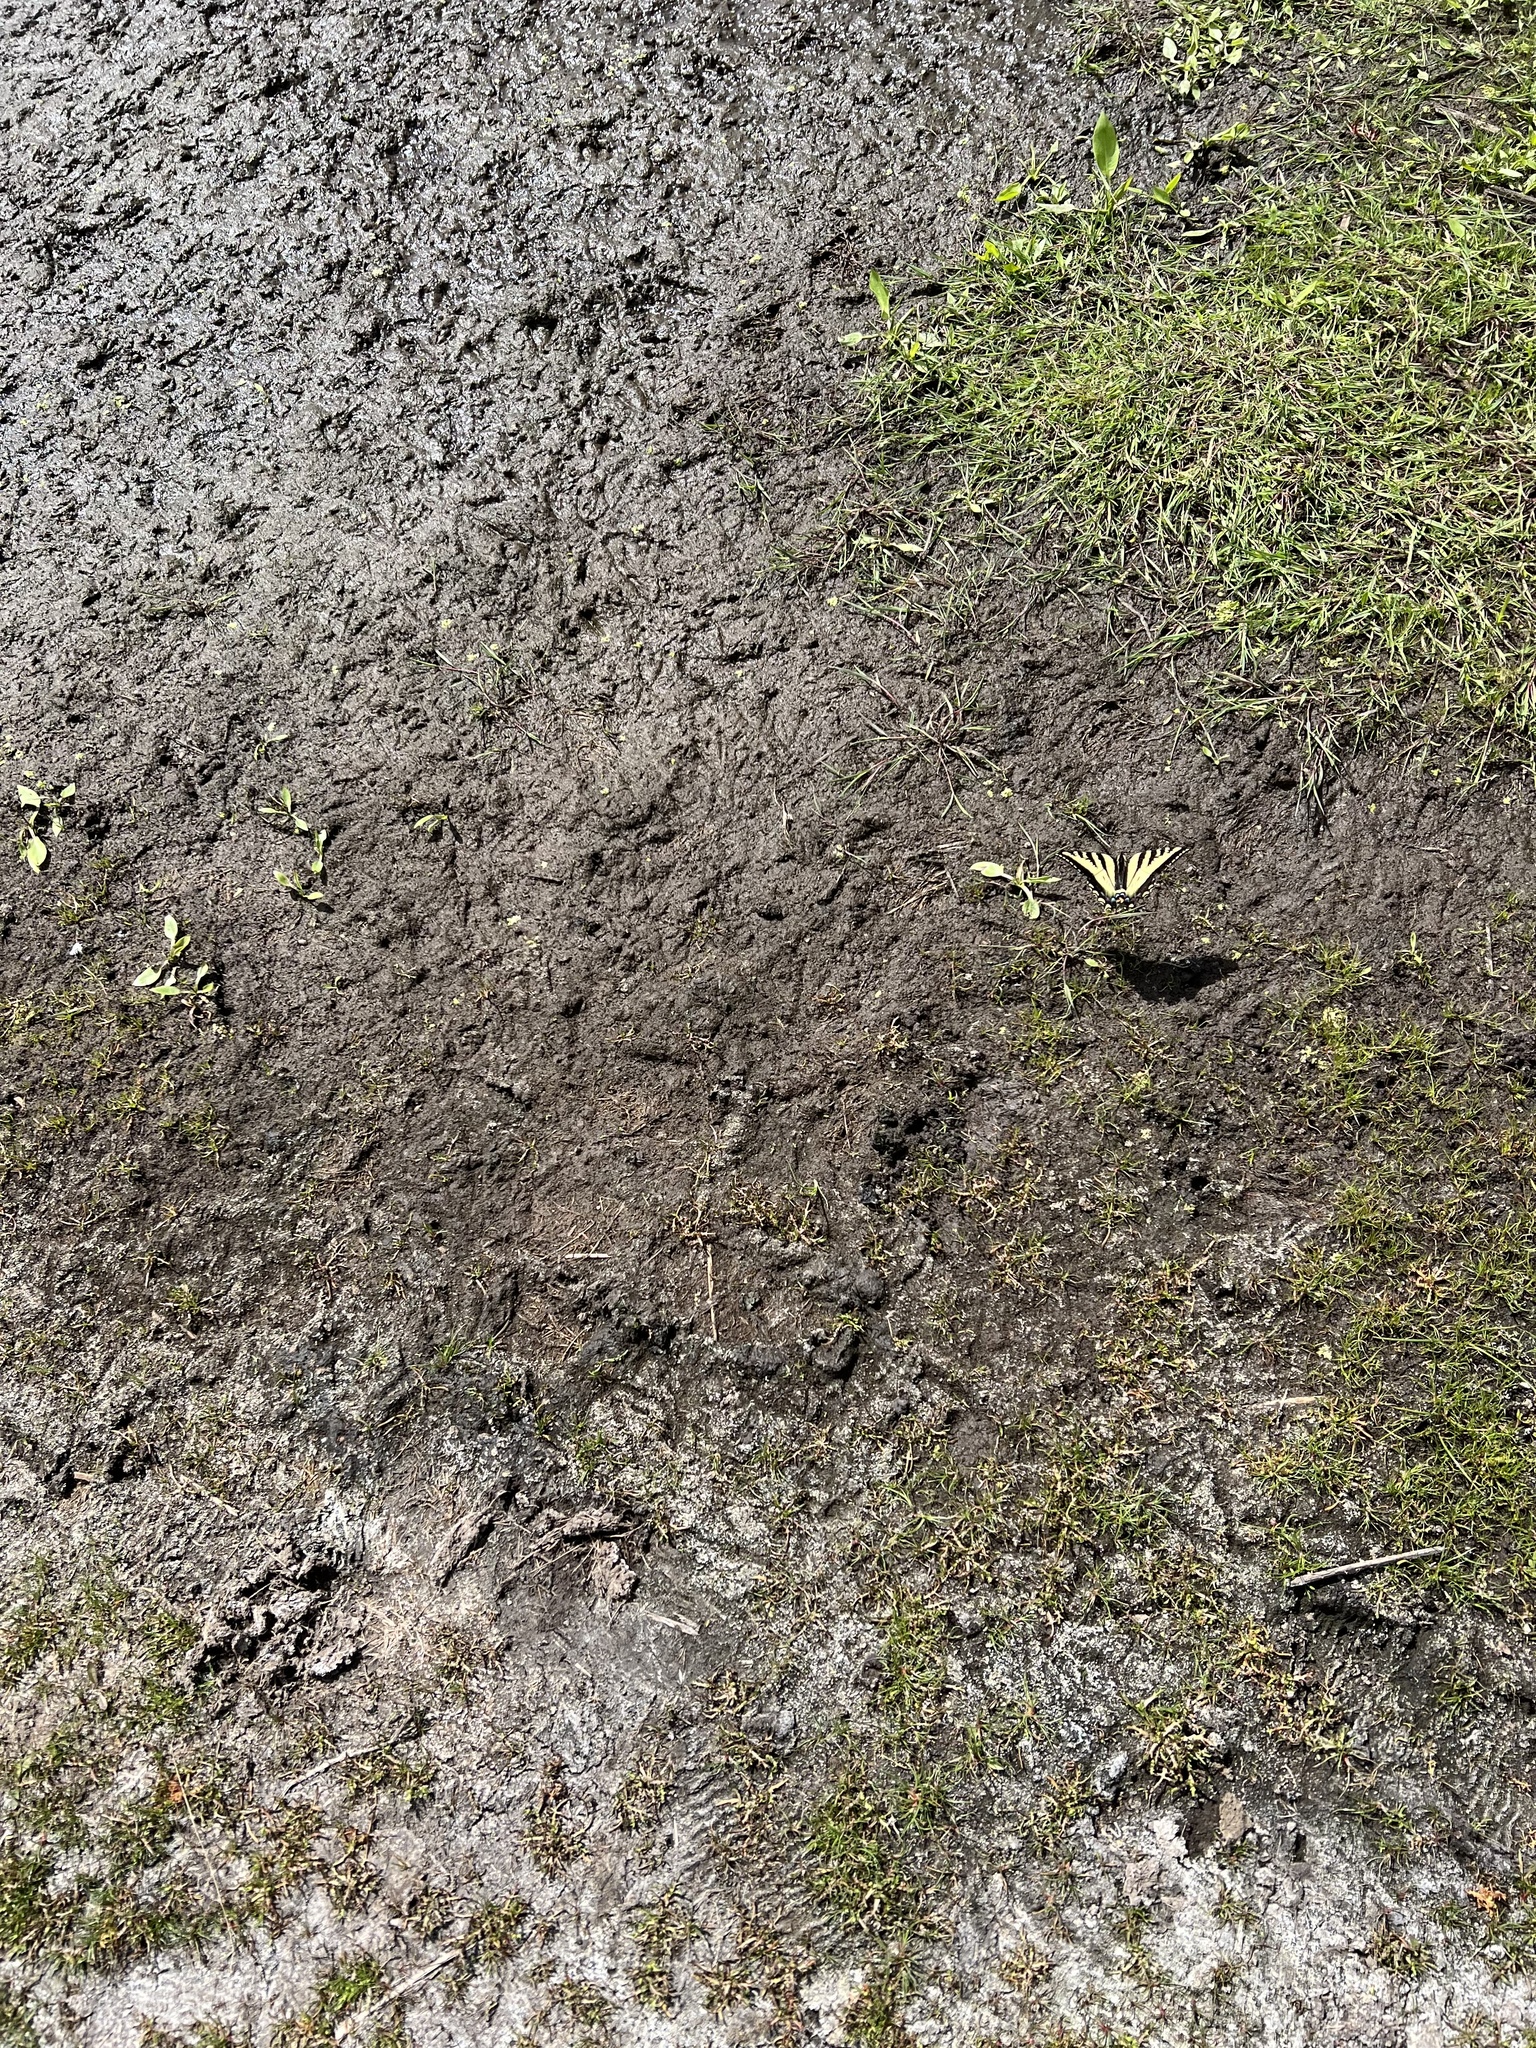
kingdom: Animalia
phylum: Arthropoda
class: Insecta
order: Lepidoptera
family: Papilionidae
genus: Papilio
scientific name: Papilio rutulus
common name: Western tiger swallowtail
